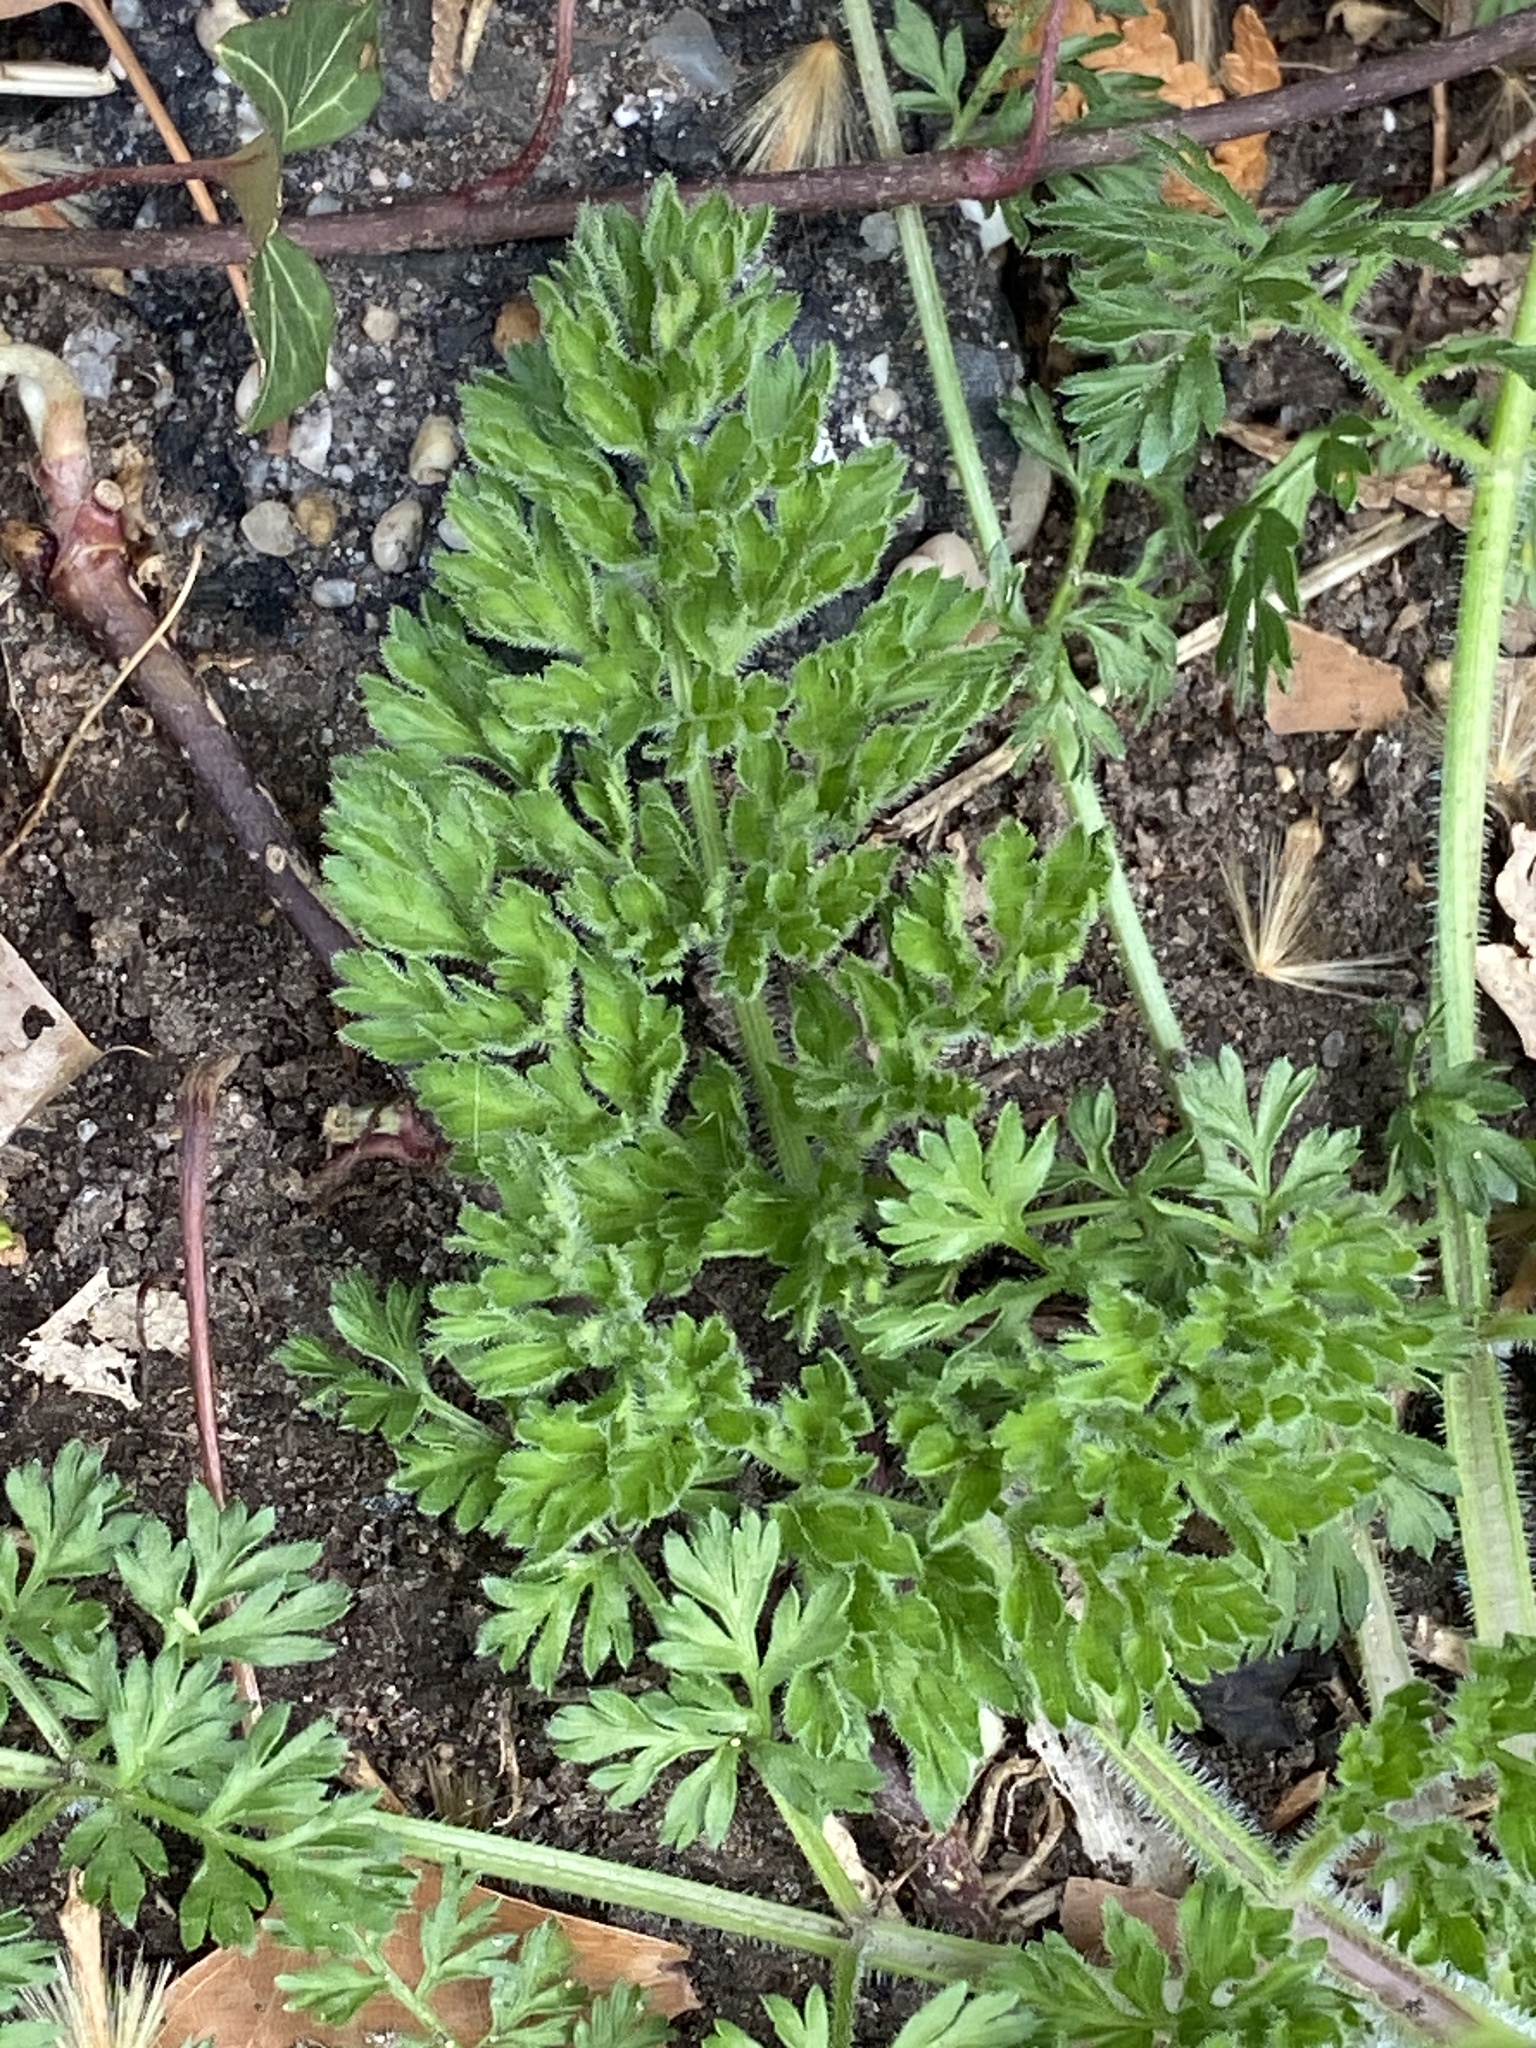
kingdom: Plantae
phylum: Tracheophyta
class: Magnoliopsida
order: Apiales
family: Apiaceae
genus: Daucus
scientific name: Daucus carota
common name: Wild carrot
